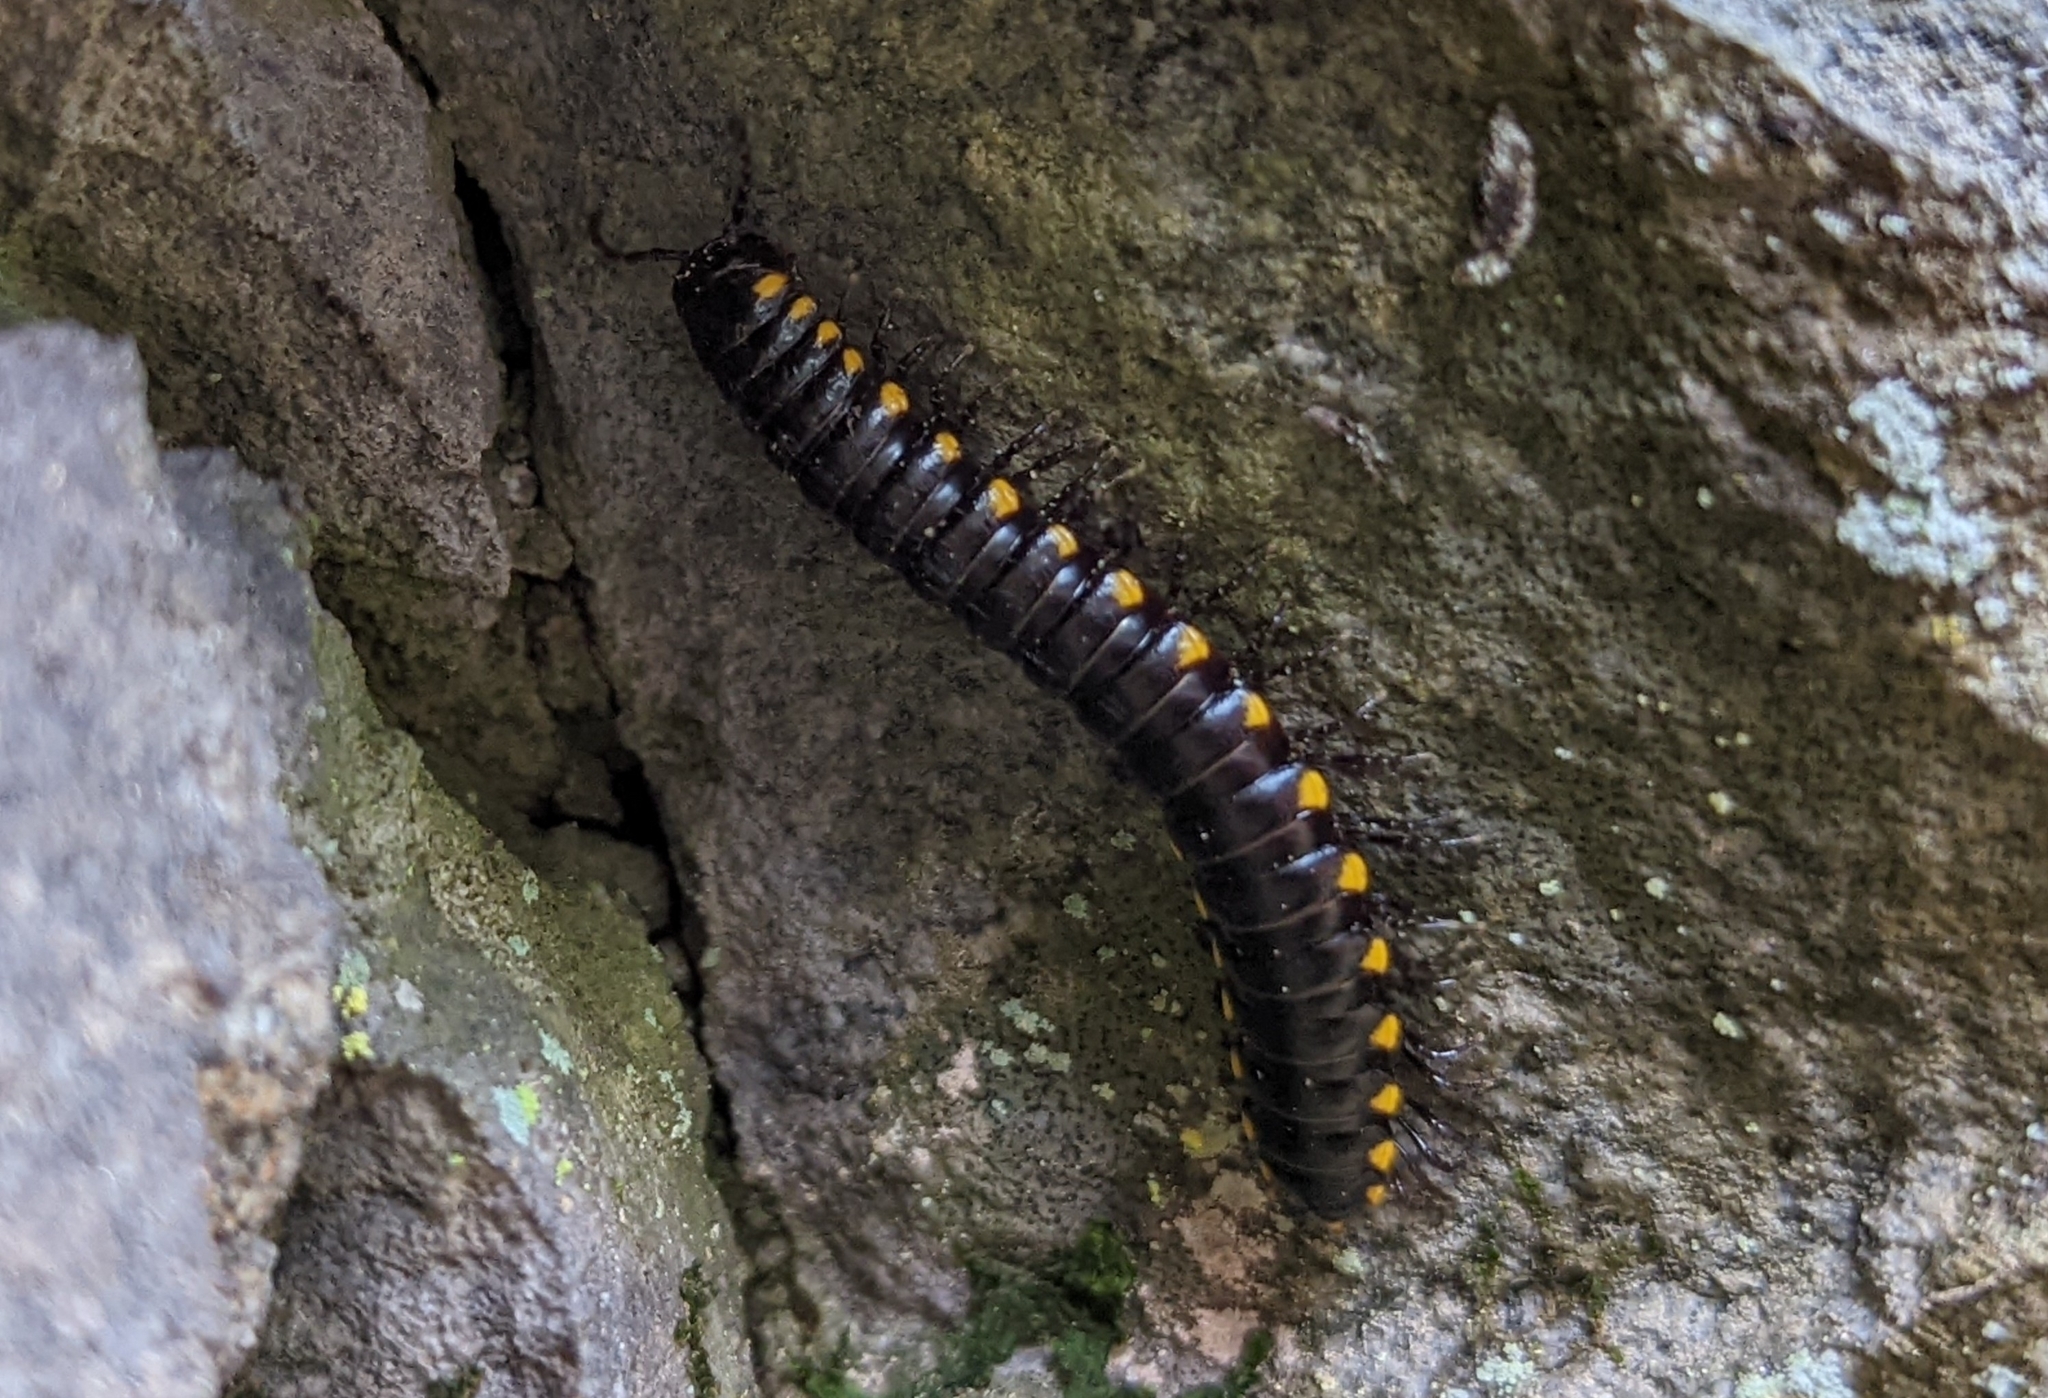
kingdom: Animalia
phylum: Arthropoda
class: Diplopoda
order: Polydesmida
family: Xystodesmidae
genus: Harpaphe
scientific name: Harpaphe haydeniana
